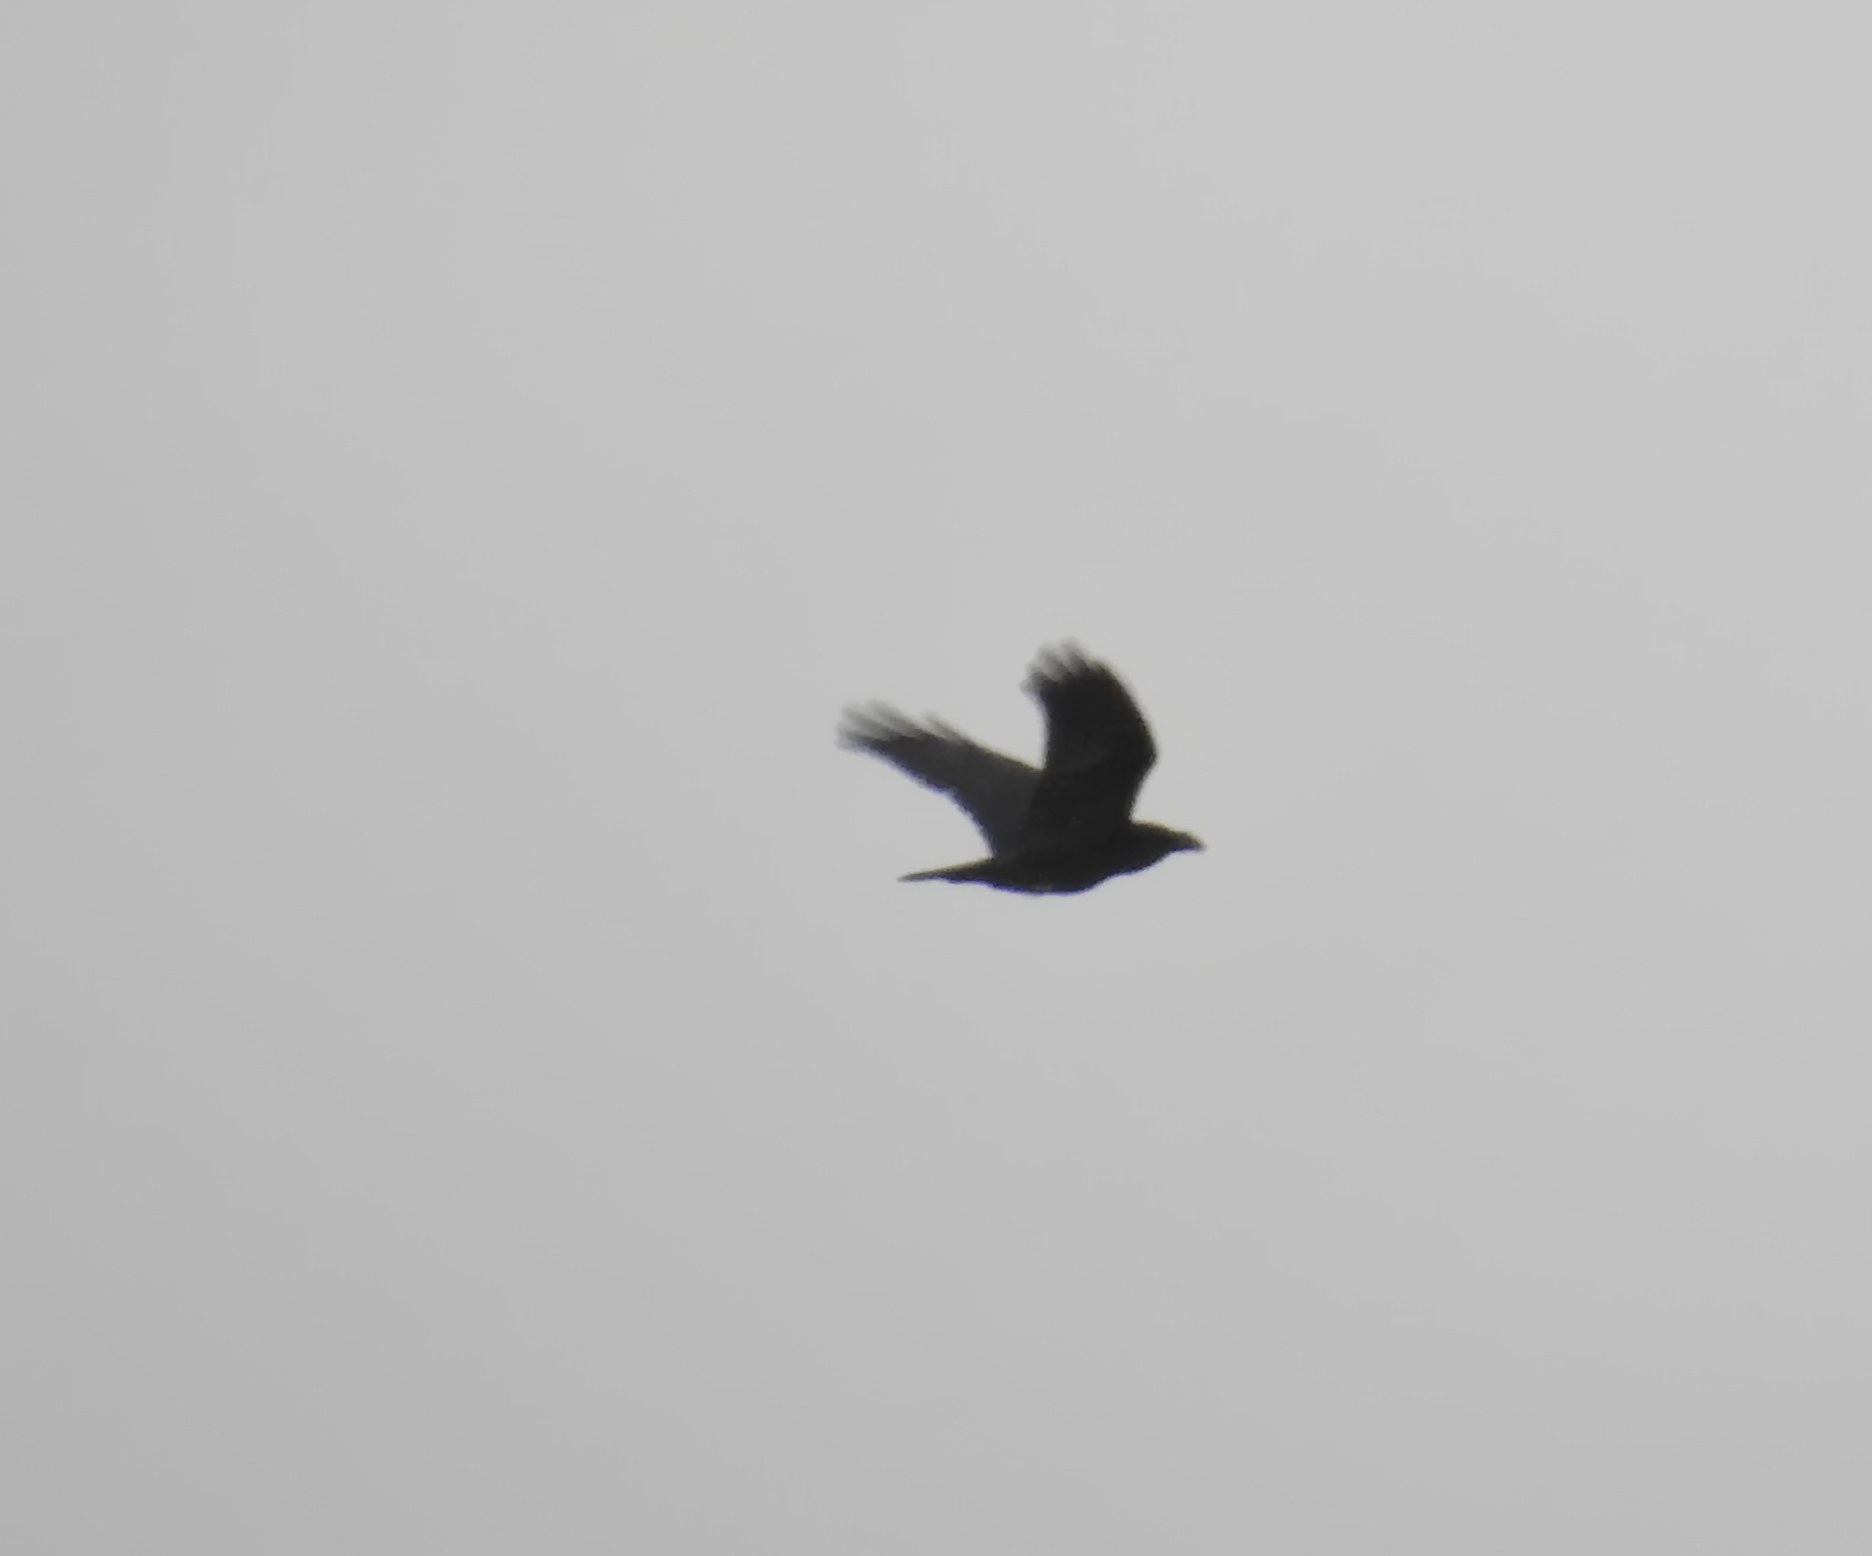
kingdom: Animalia
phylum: Chordata
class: Aves
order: Passeriformes
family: Corvidae
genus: Corvus
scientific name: Corvus corax
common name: Common raven
